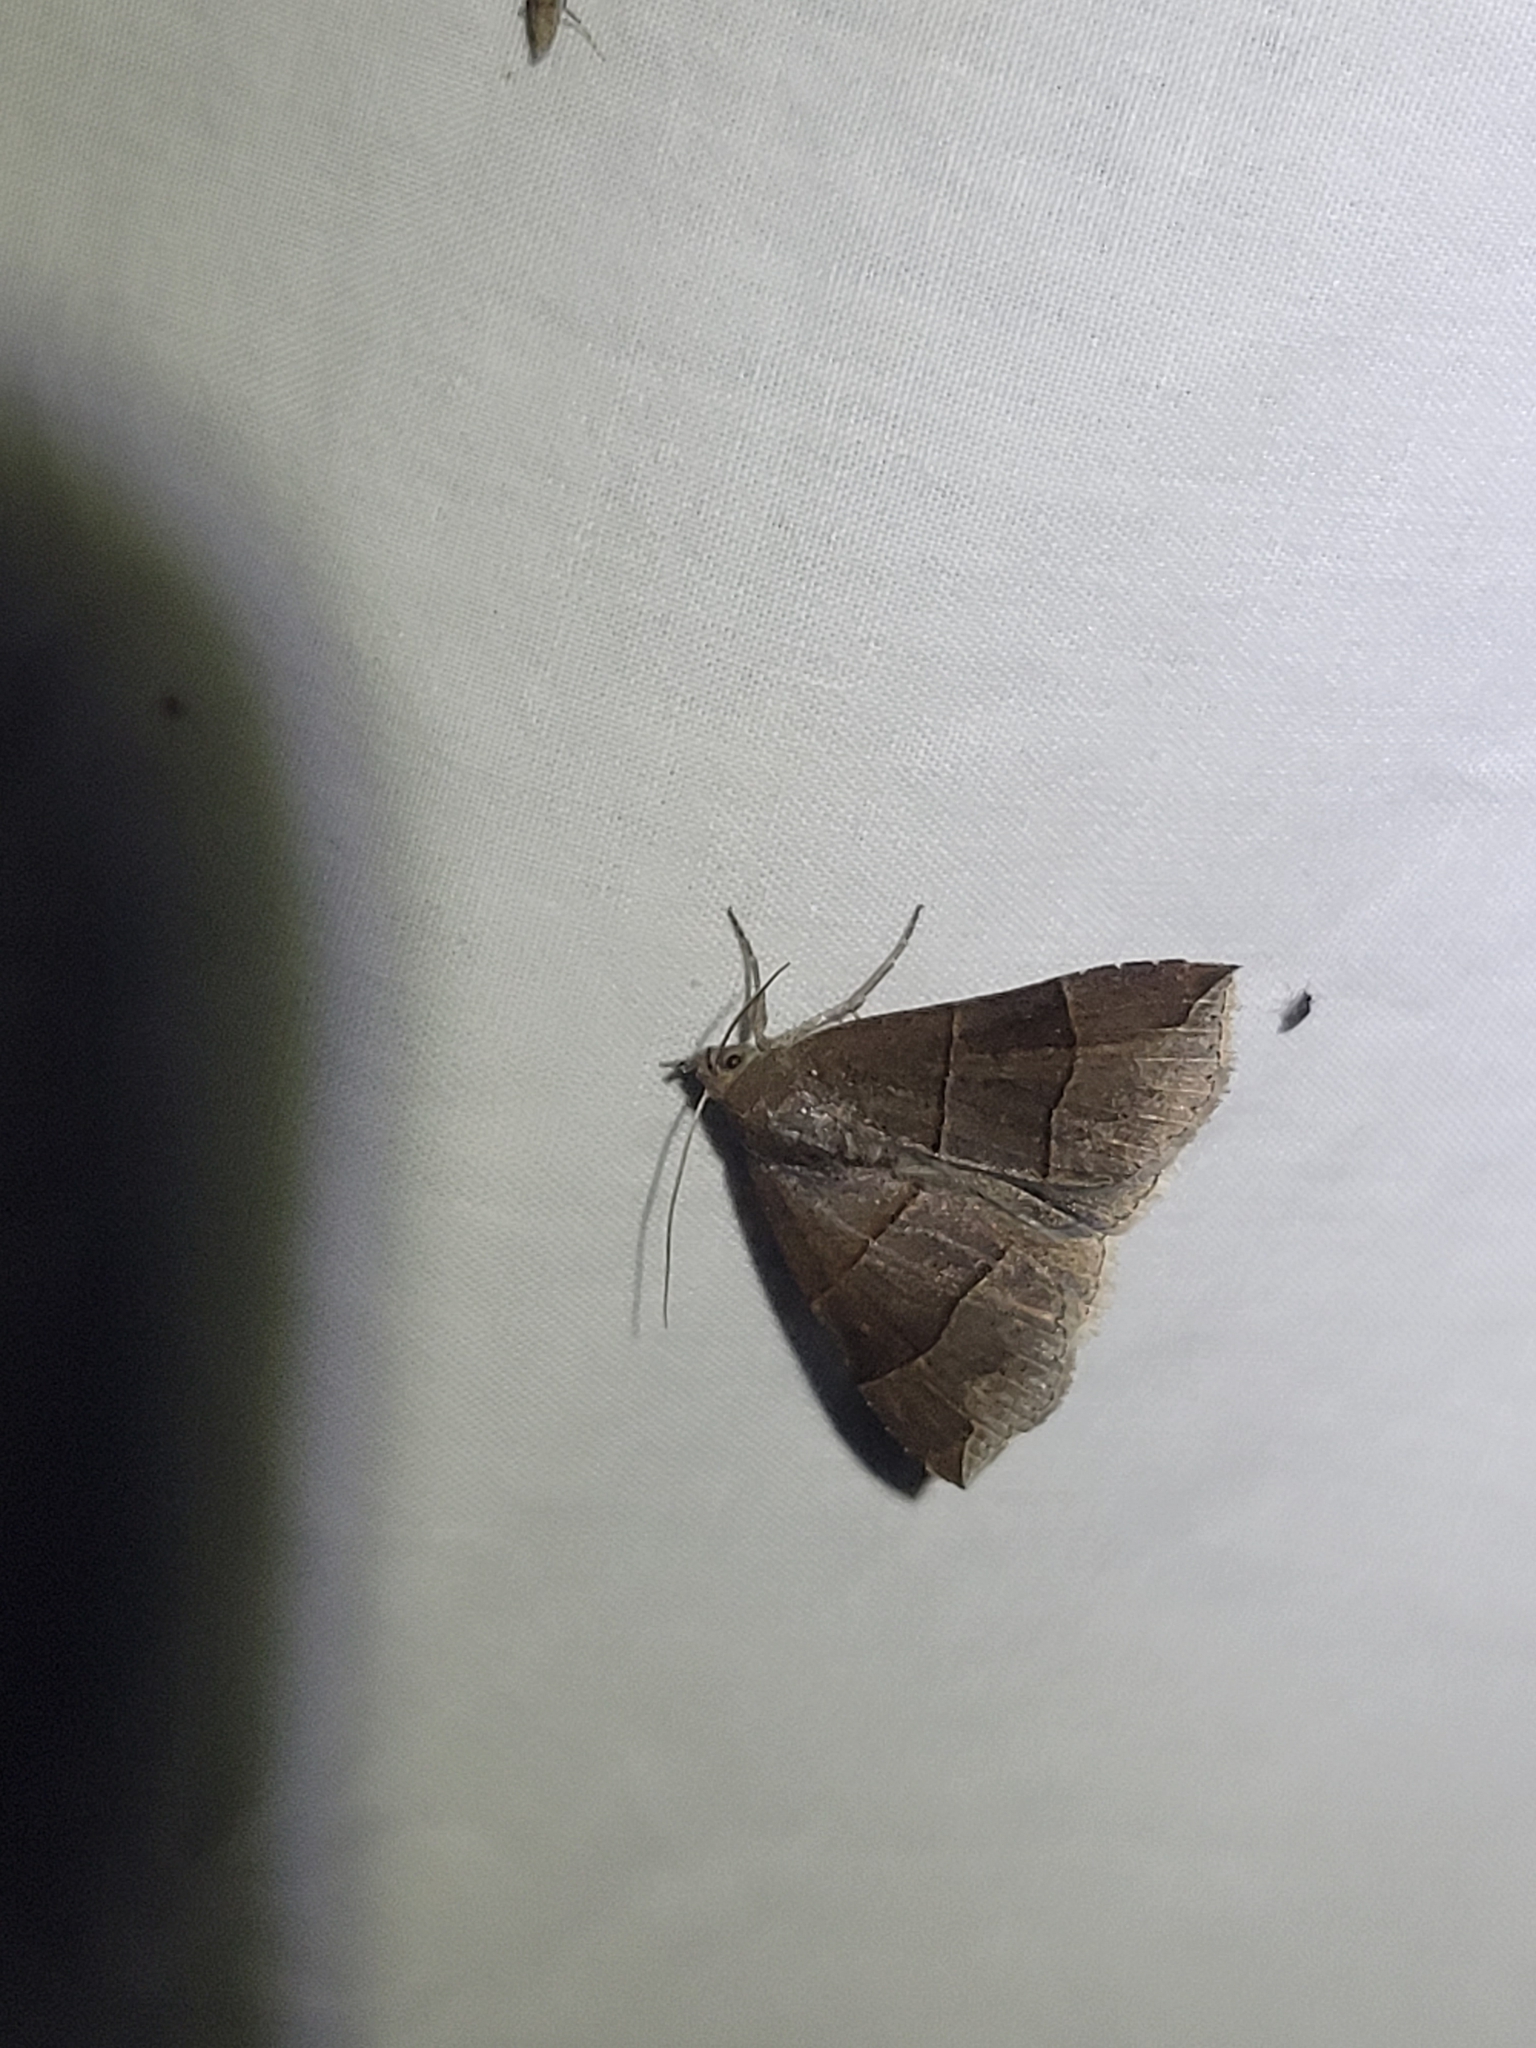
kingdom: Animalia
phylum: Arthropoda
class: Insecta
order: Lepidoptera
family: Erebidae
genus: Parallelia
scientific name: Parallelia bistriaris
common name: Maple looper moth
